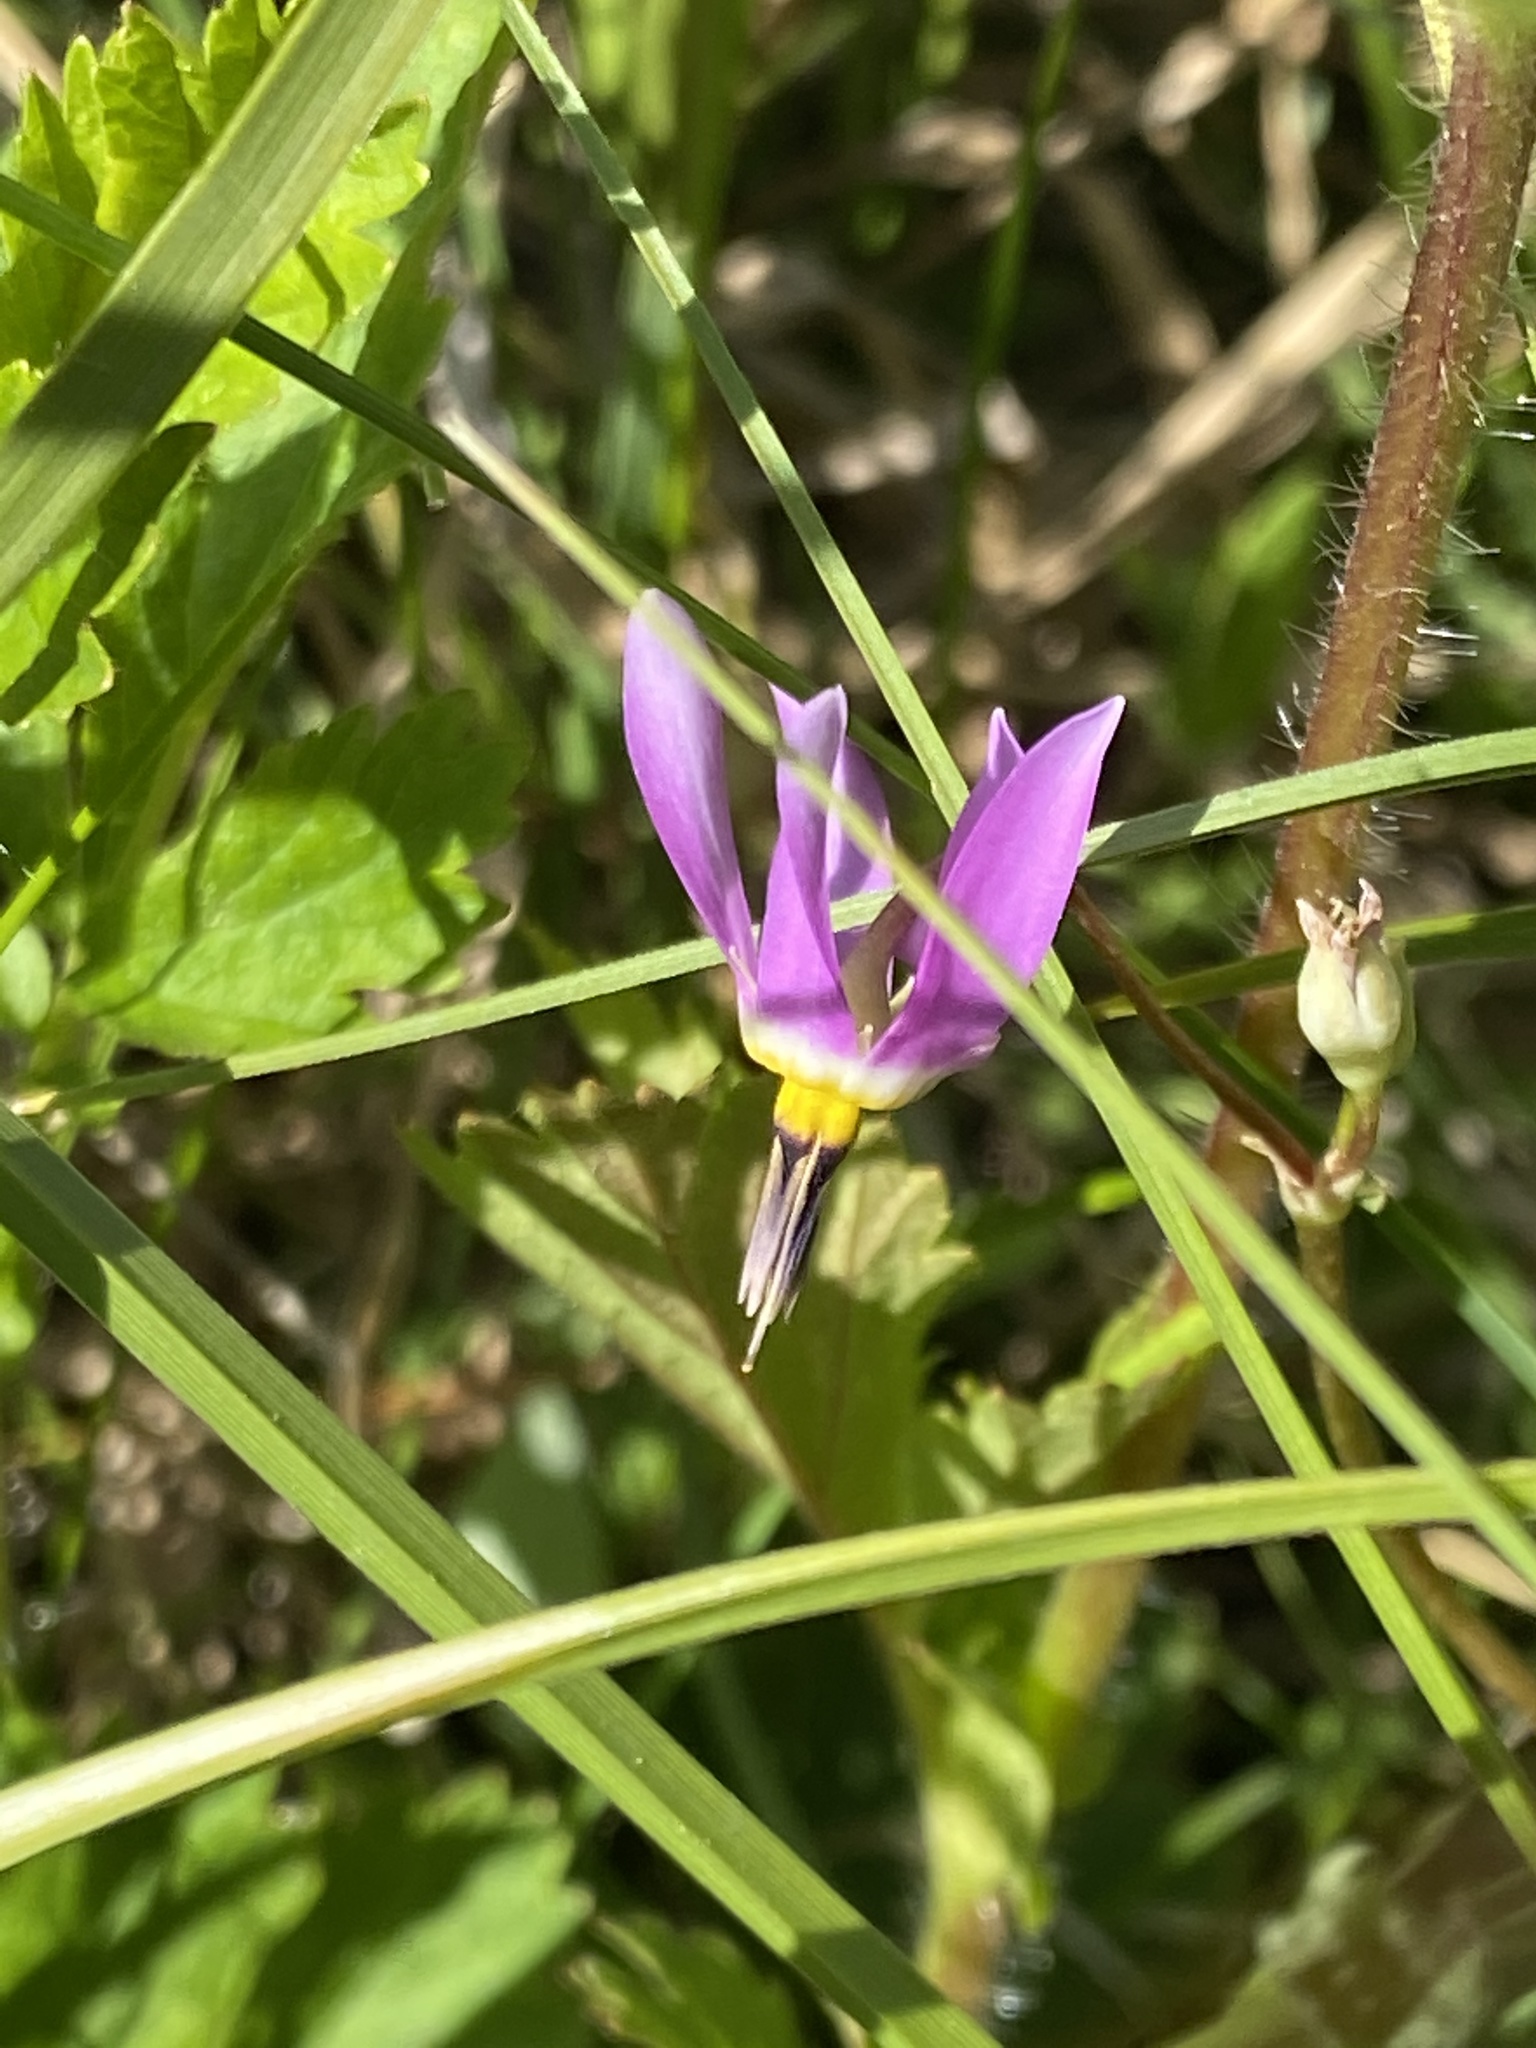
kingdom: Plantae
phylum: Tracheophyta
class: Magnoliopsida
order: Ericales
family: Primulaceae
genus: Dodecatheon
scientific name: Dodecatheon pulchellum
